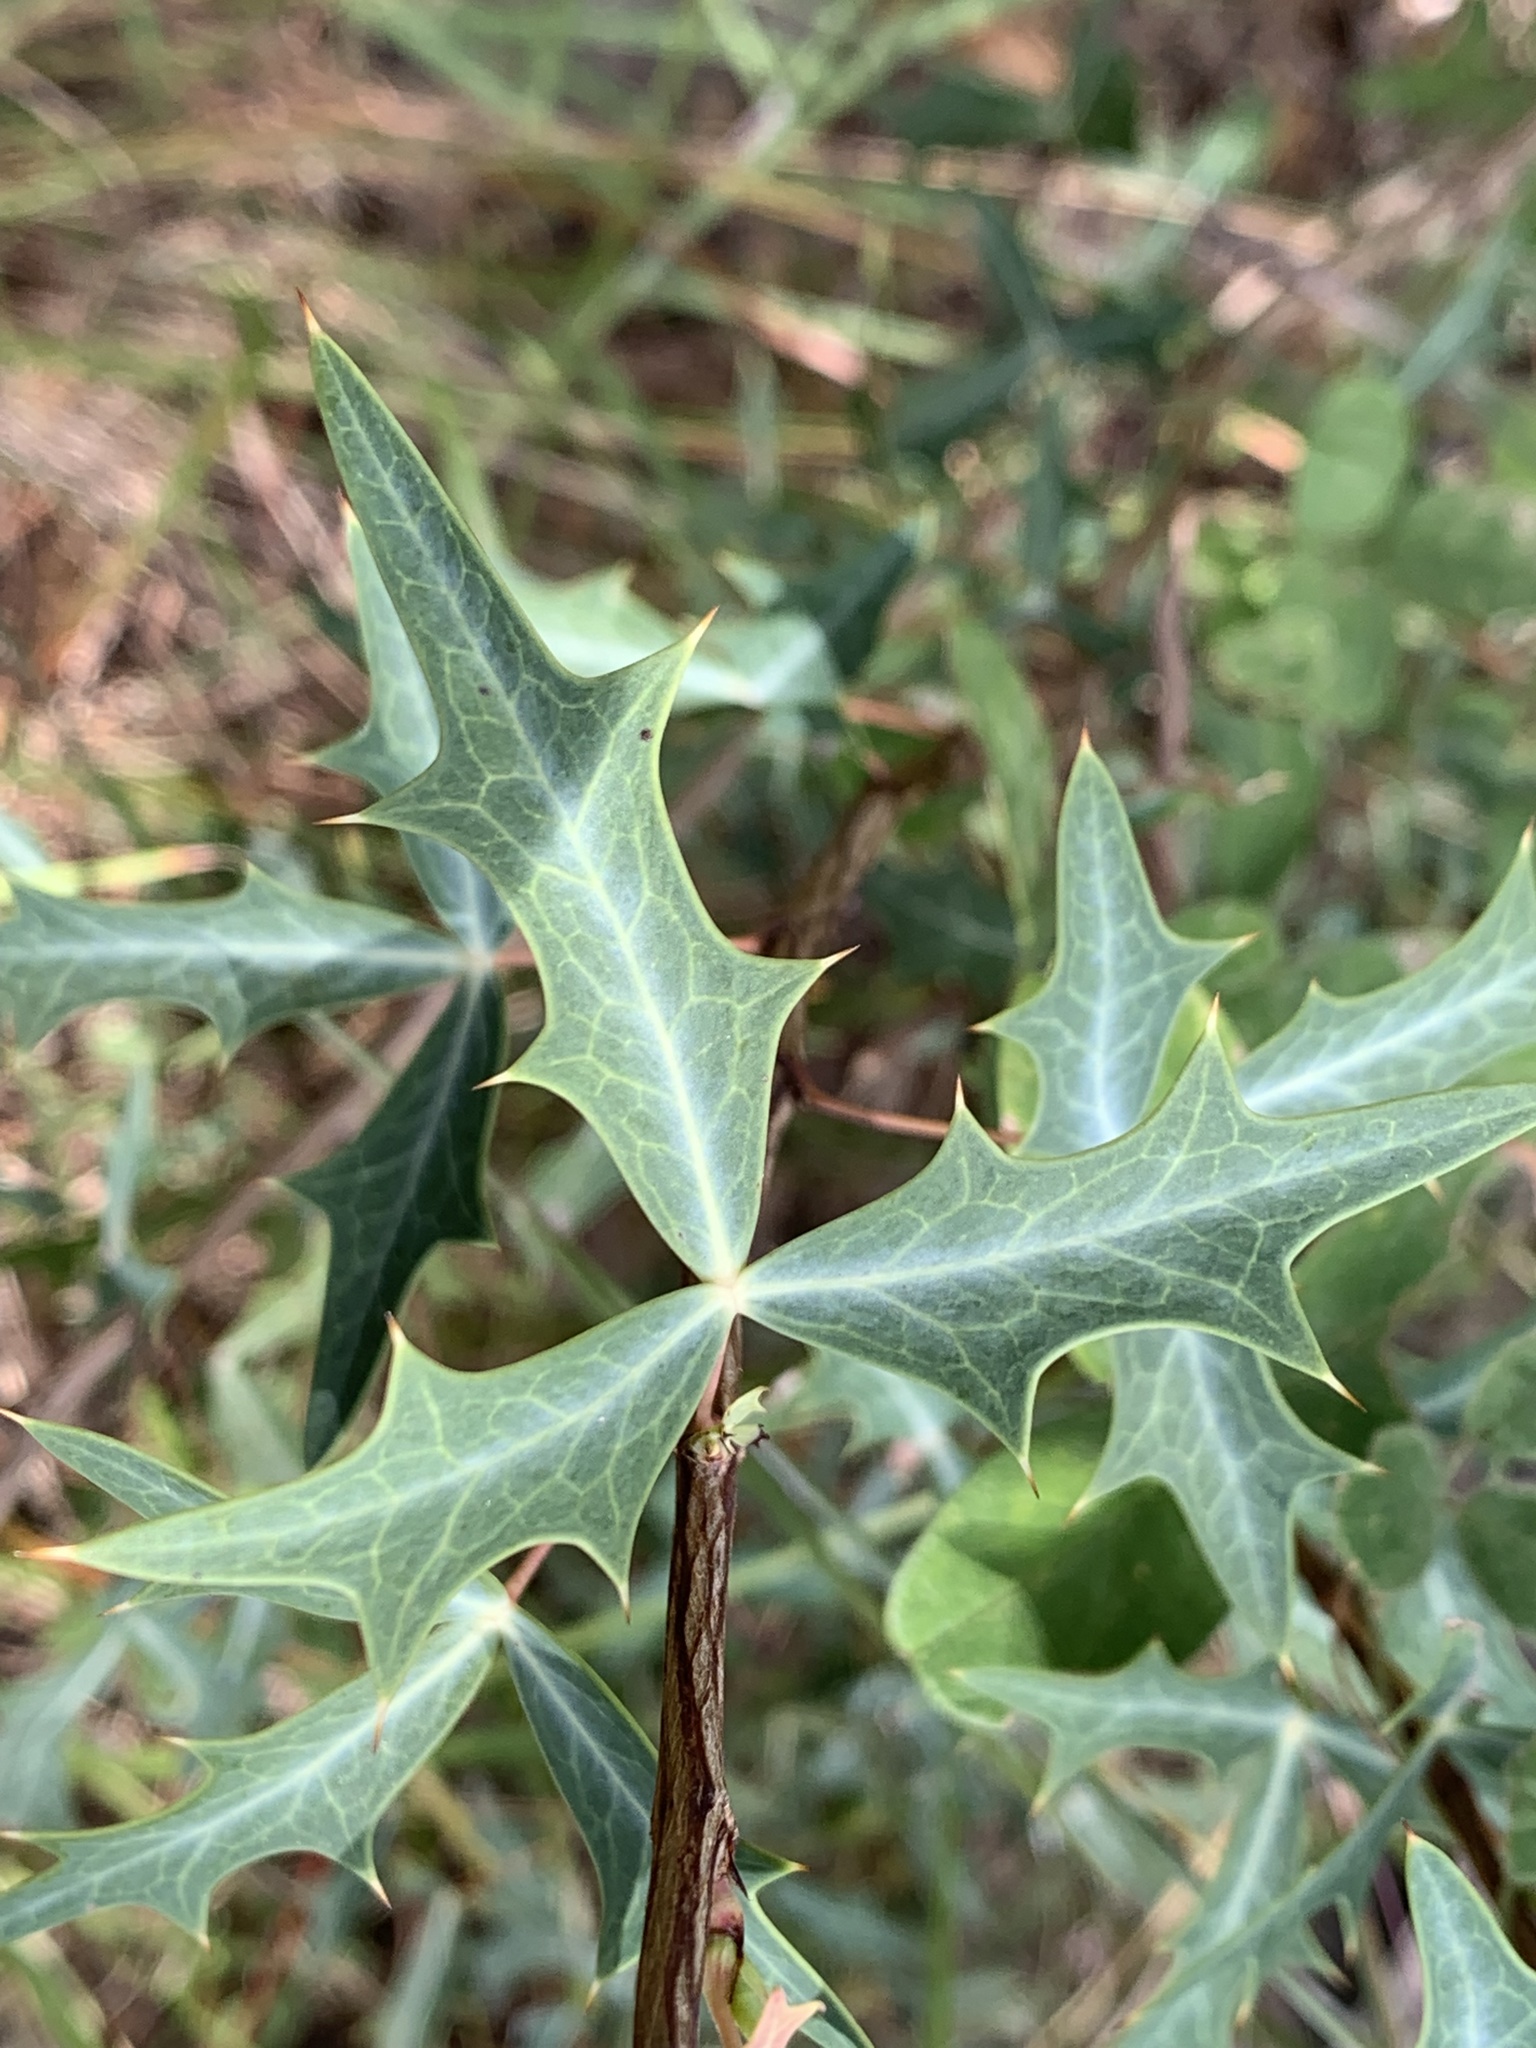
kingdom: Plantae
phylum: Tracheophyta
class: Magnoliopsida
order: Ranunculales
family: Berberidaceae
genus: Alloberberis
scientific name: Alloberberis trifoliolata
